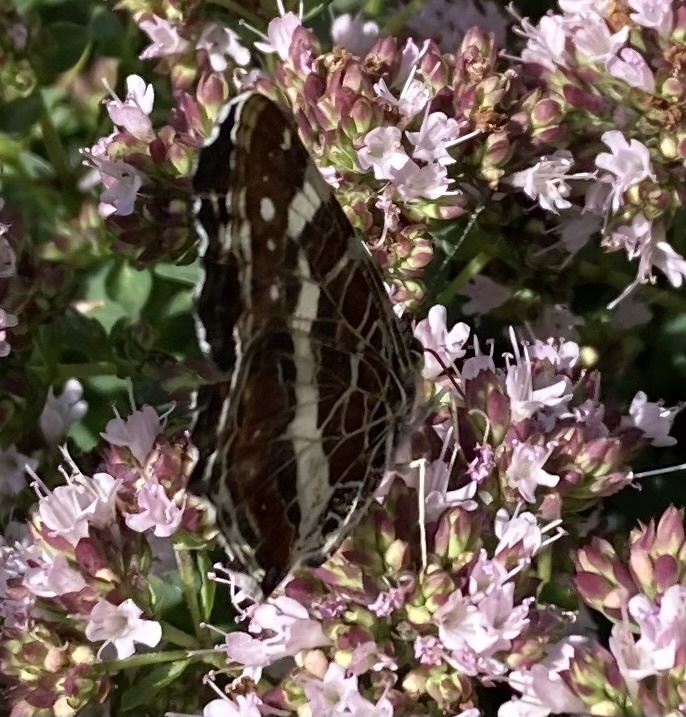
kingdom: Animalia
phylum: Arthropoda
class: Insecta
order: Lepidoptera
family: Nymphalidae
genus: Araschnia
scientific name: Araschnia levana
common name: Map butterfly
